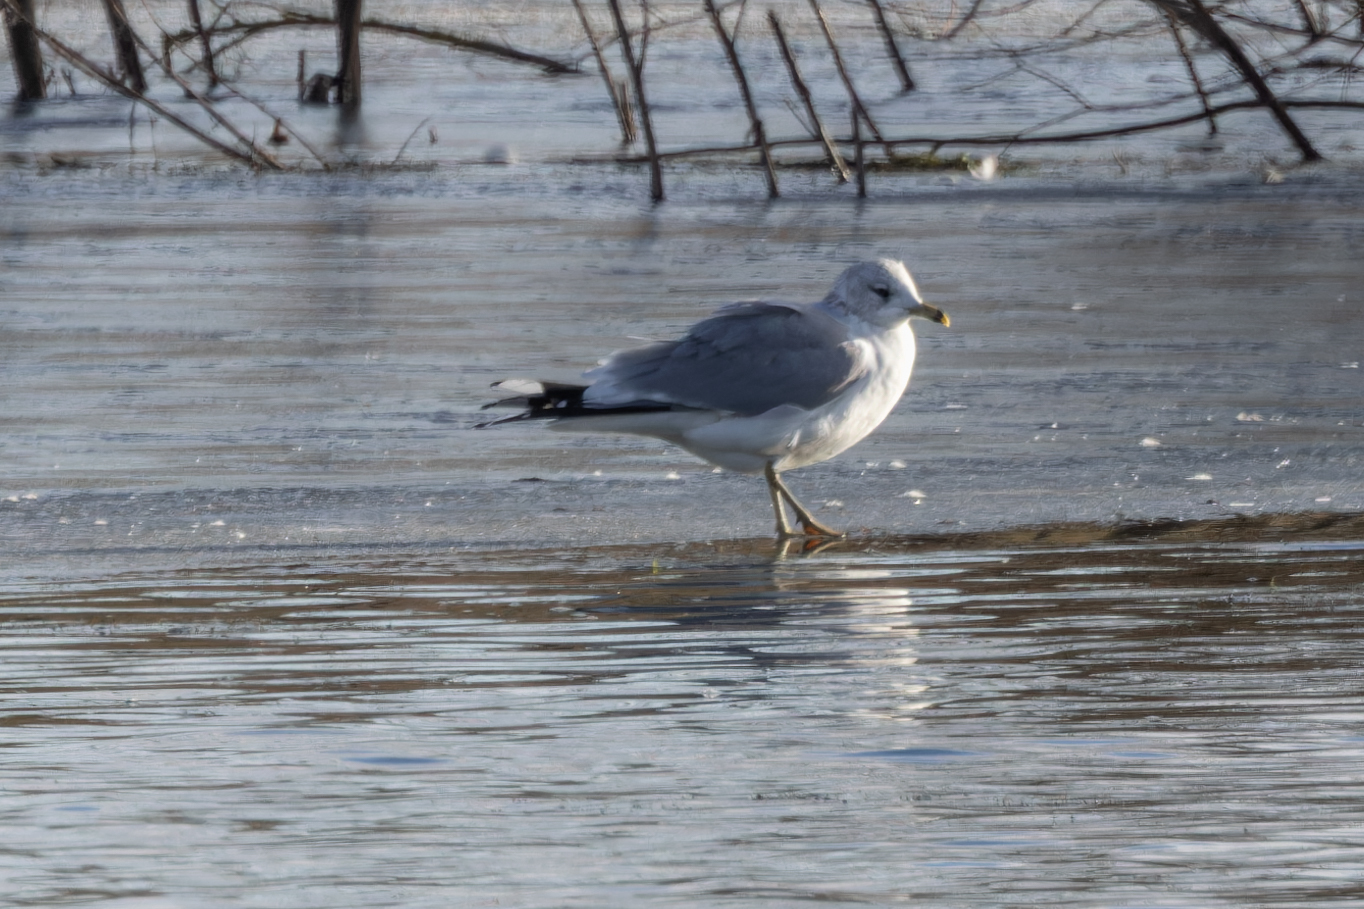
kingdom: Animalia
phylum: Chordata
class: Aves
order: Charadriiformes
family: Laridae
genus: Larus
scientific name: Larus canus
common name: Mew gull
